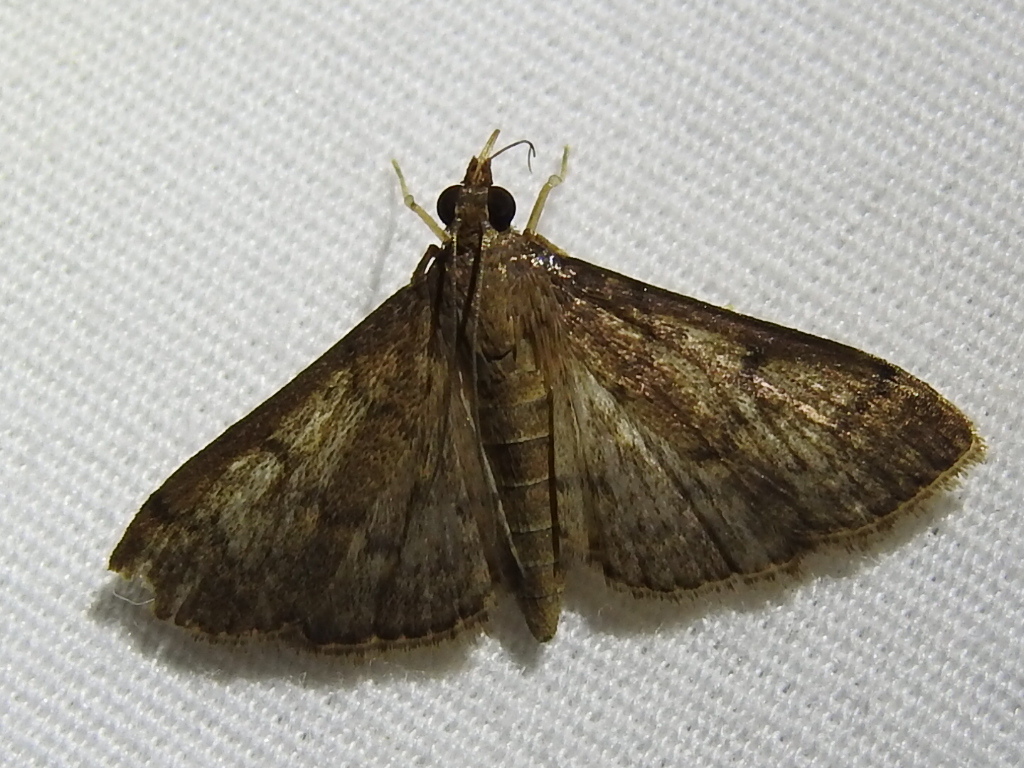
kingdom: Animalia
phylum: Arthropoda
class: Insecta
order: Lepidoptera
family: Crambidae
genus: Herpetogramma
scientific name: Herpetogramma phaeopteralis
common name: Dusky herpetogramma moth
